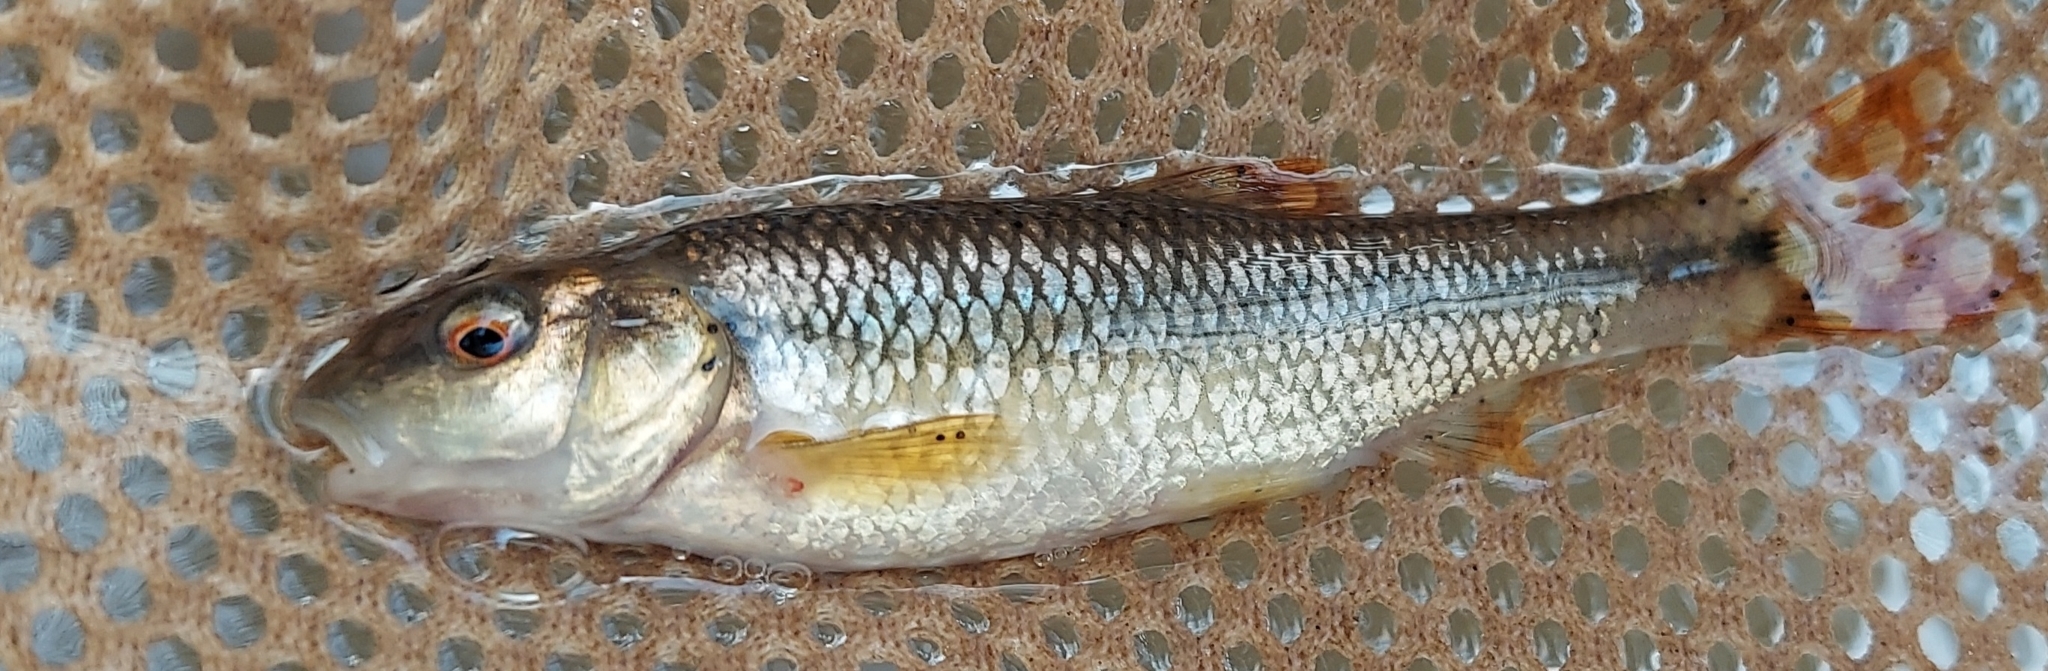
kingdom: Animalia
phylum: Chordata
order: Cypriniformes
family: Cyprinidae
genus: Nocomis
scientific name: Nocomis leptocephalus
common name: Bluehead chub
